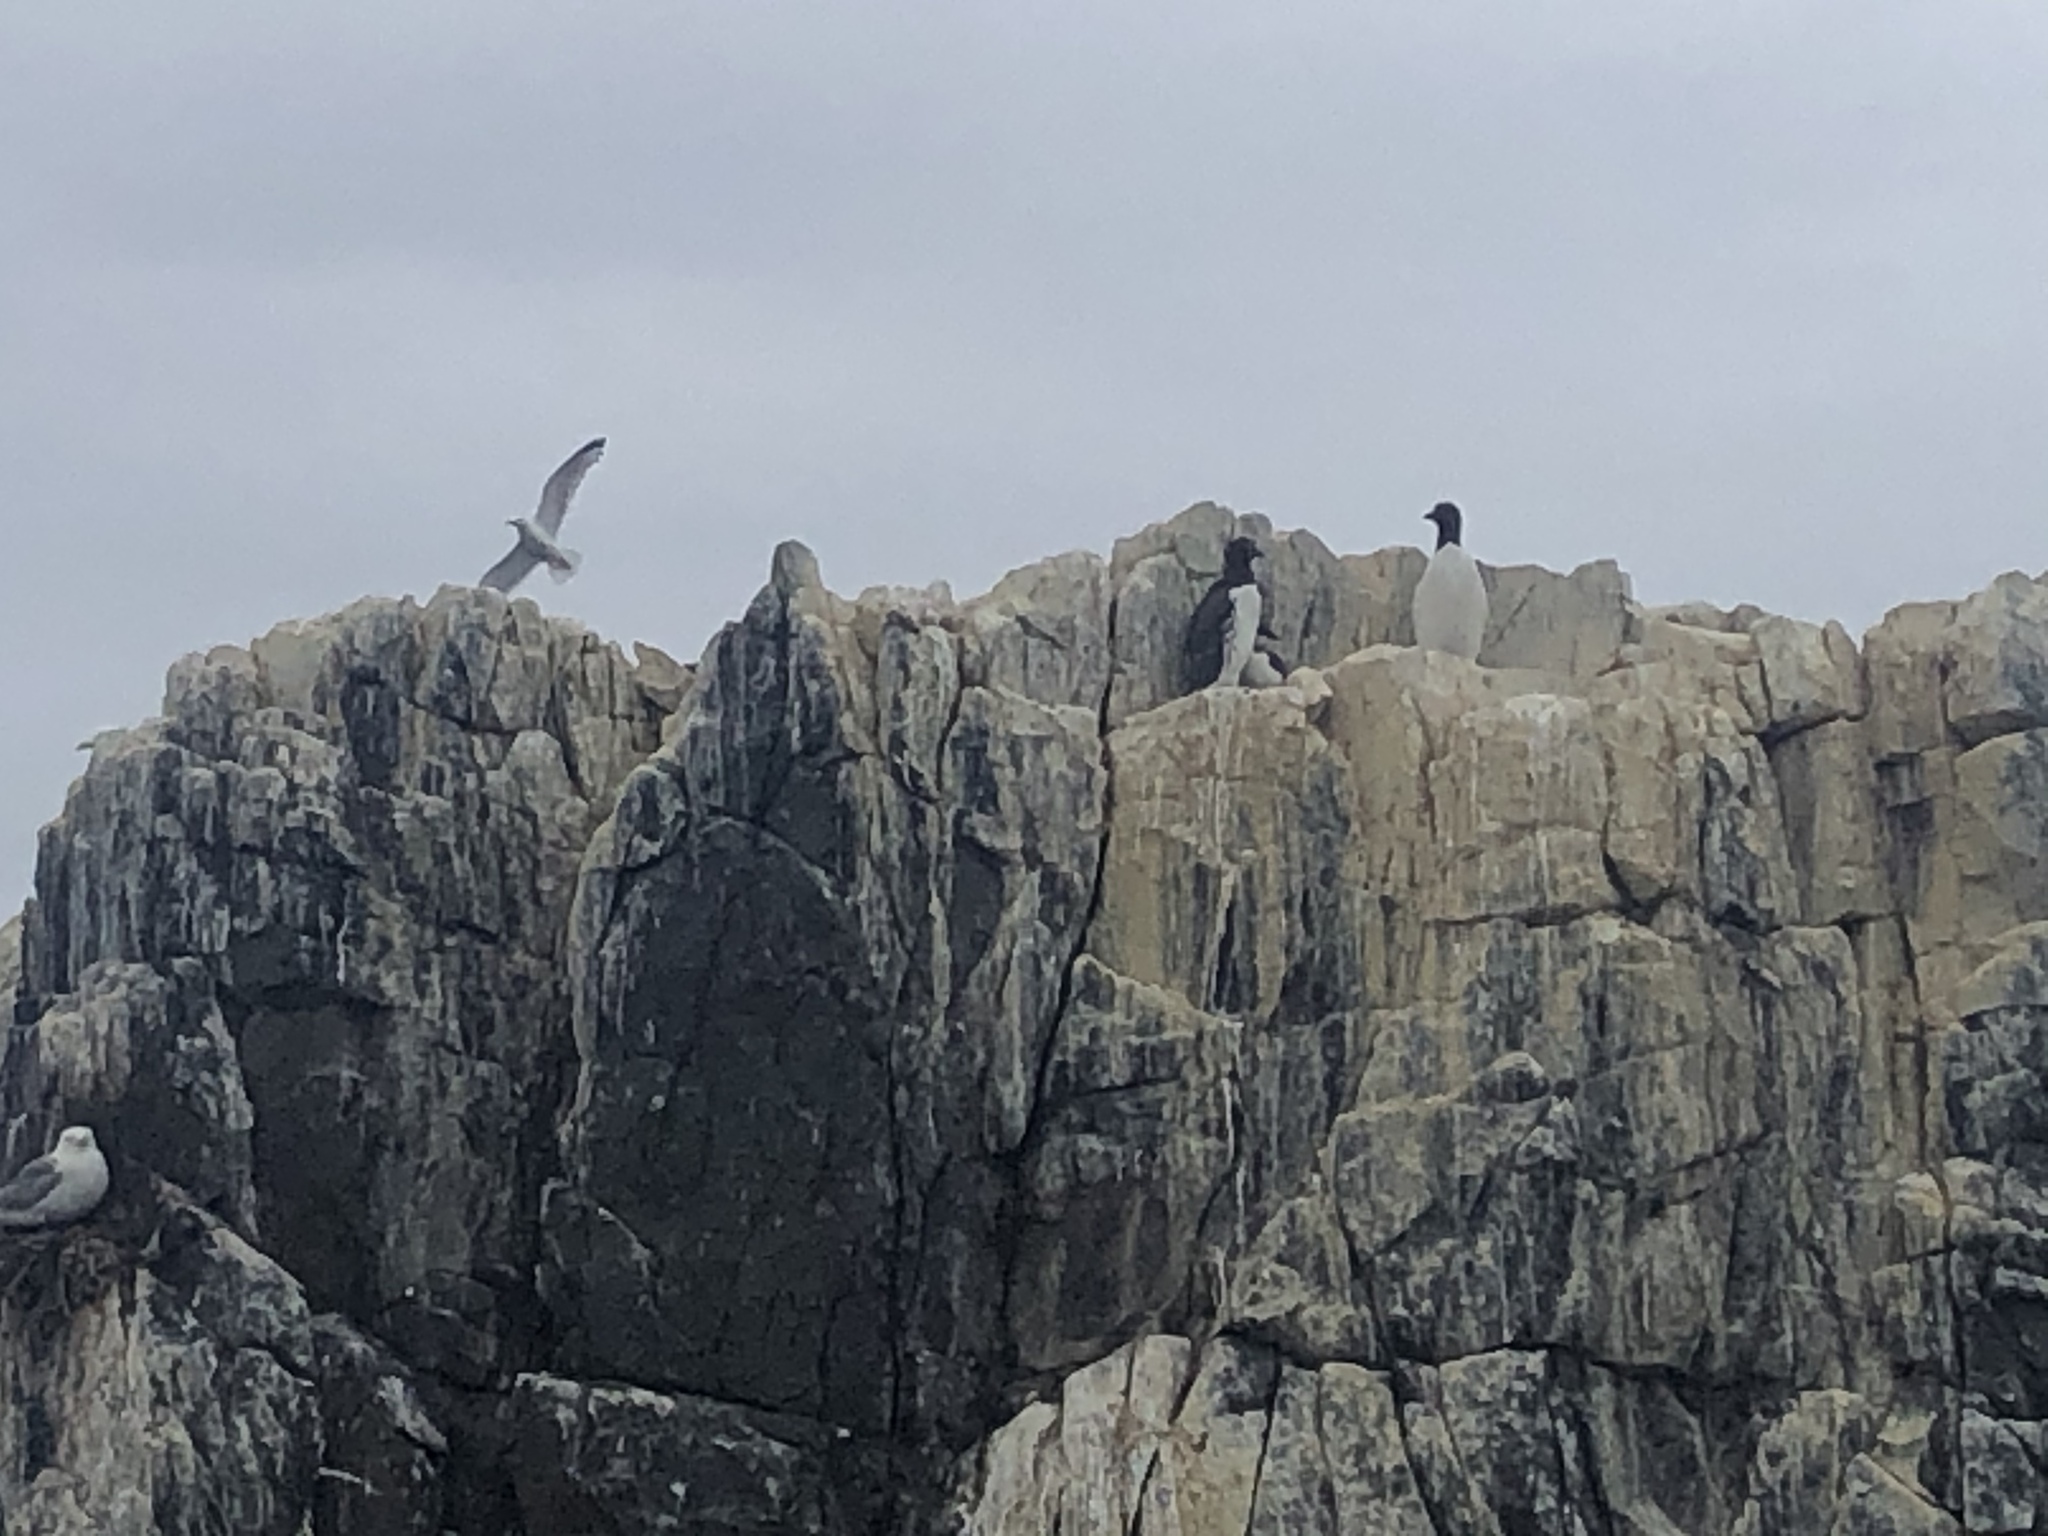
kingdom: Animalia
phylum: Chordata
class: Aves
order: Charadriiformes
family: Alcidae
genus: Uria
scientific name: Uria aalge
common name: Common murre
